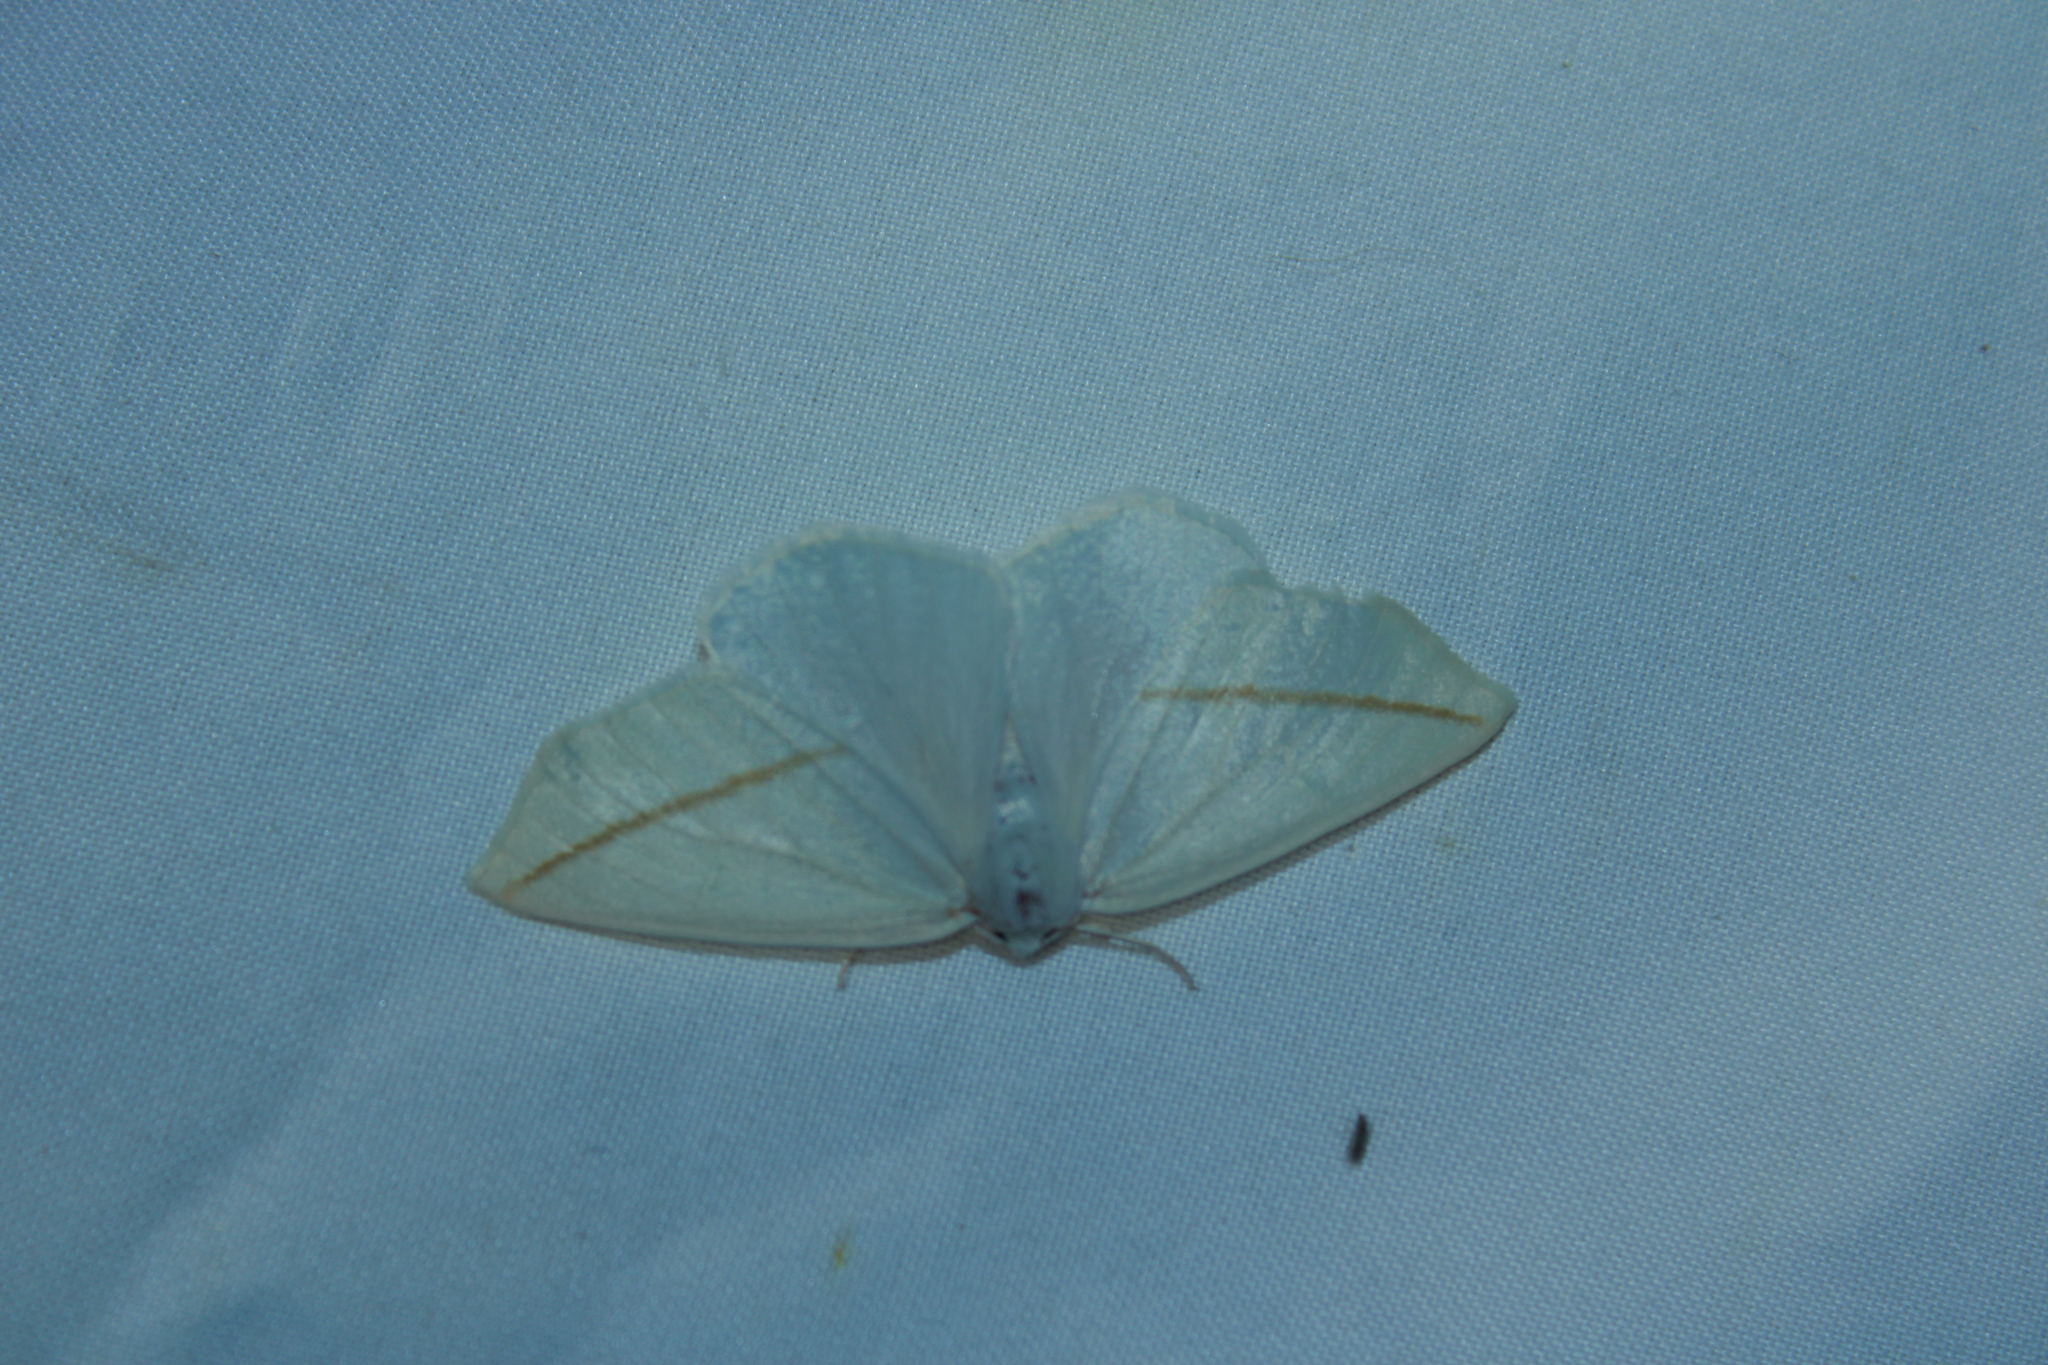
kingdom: Animalia
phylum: Arthropoda
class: Insecta
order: Lepidoptera
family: Geometridae
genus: Tetracis
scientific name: Tetracis cachexiata
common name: White slant-line
